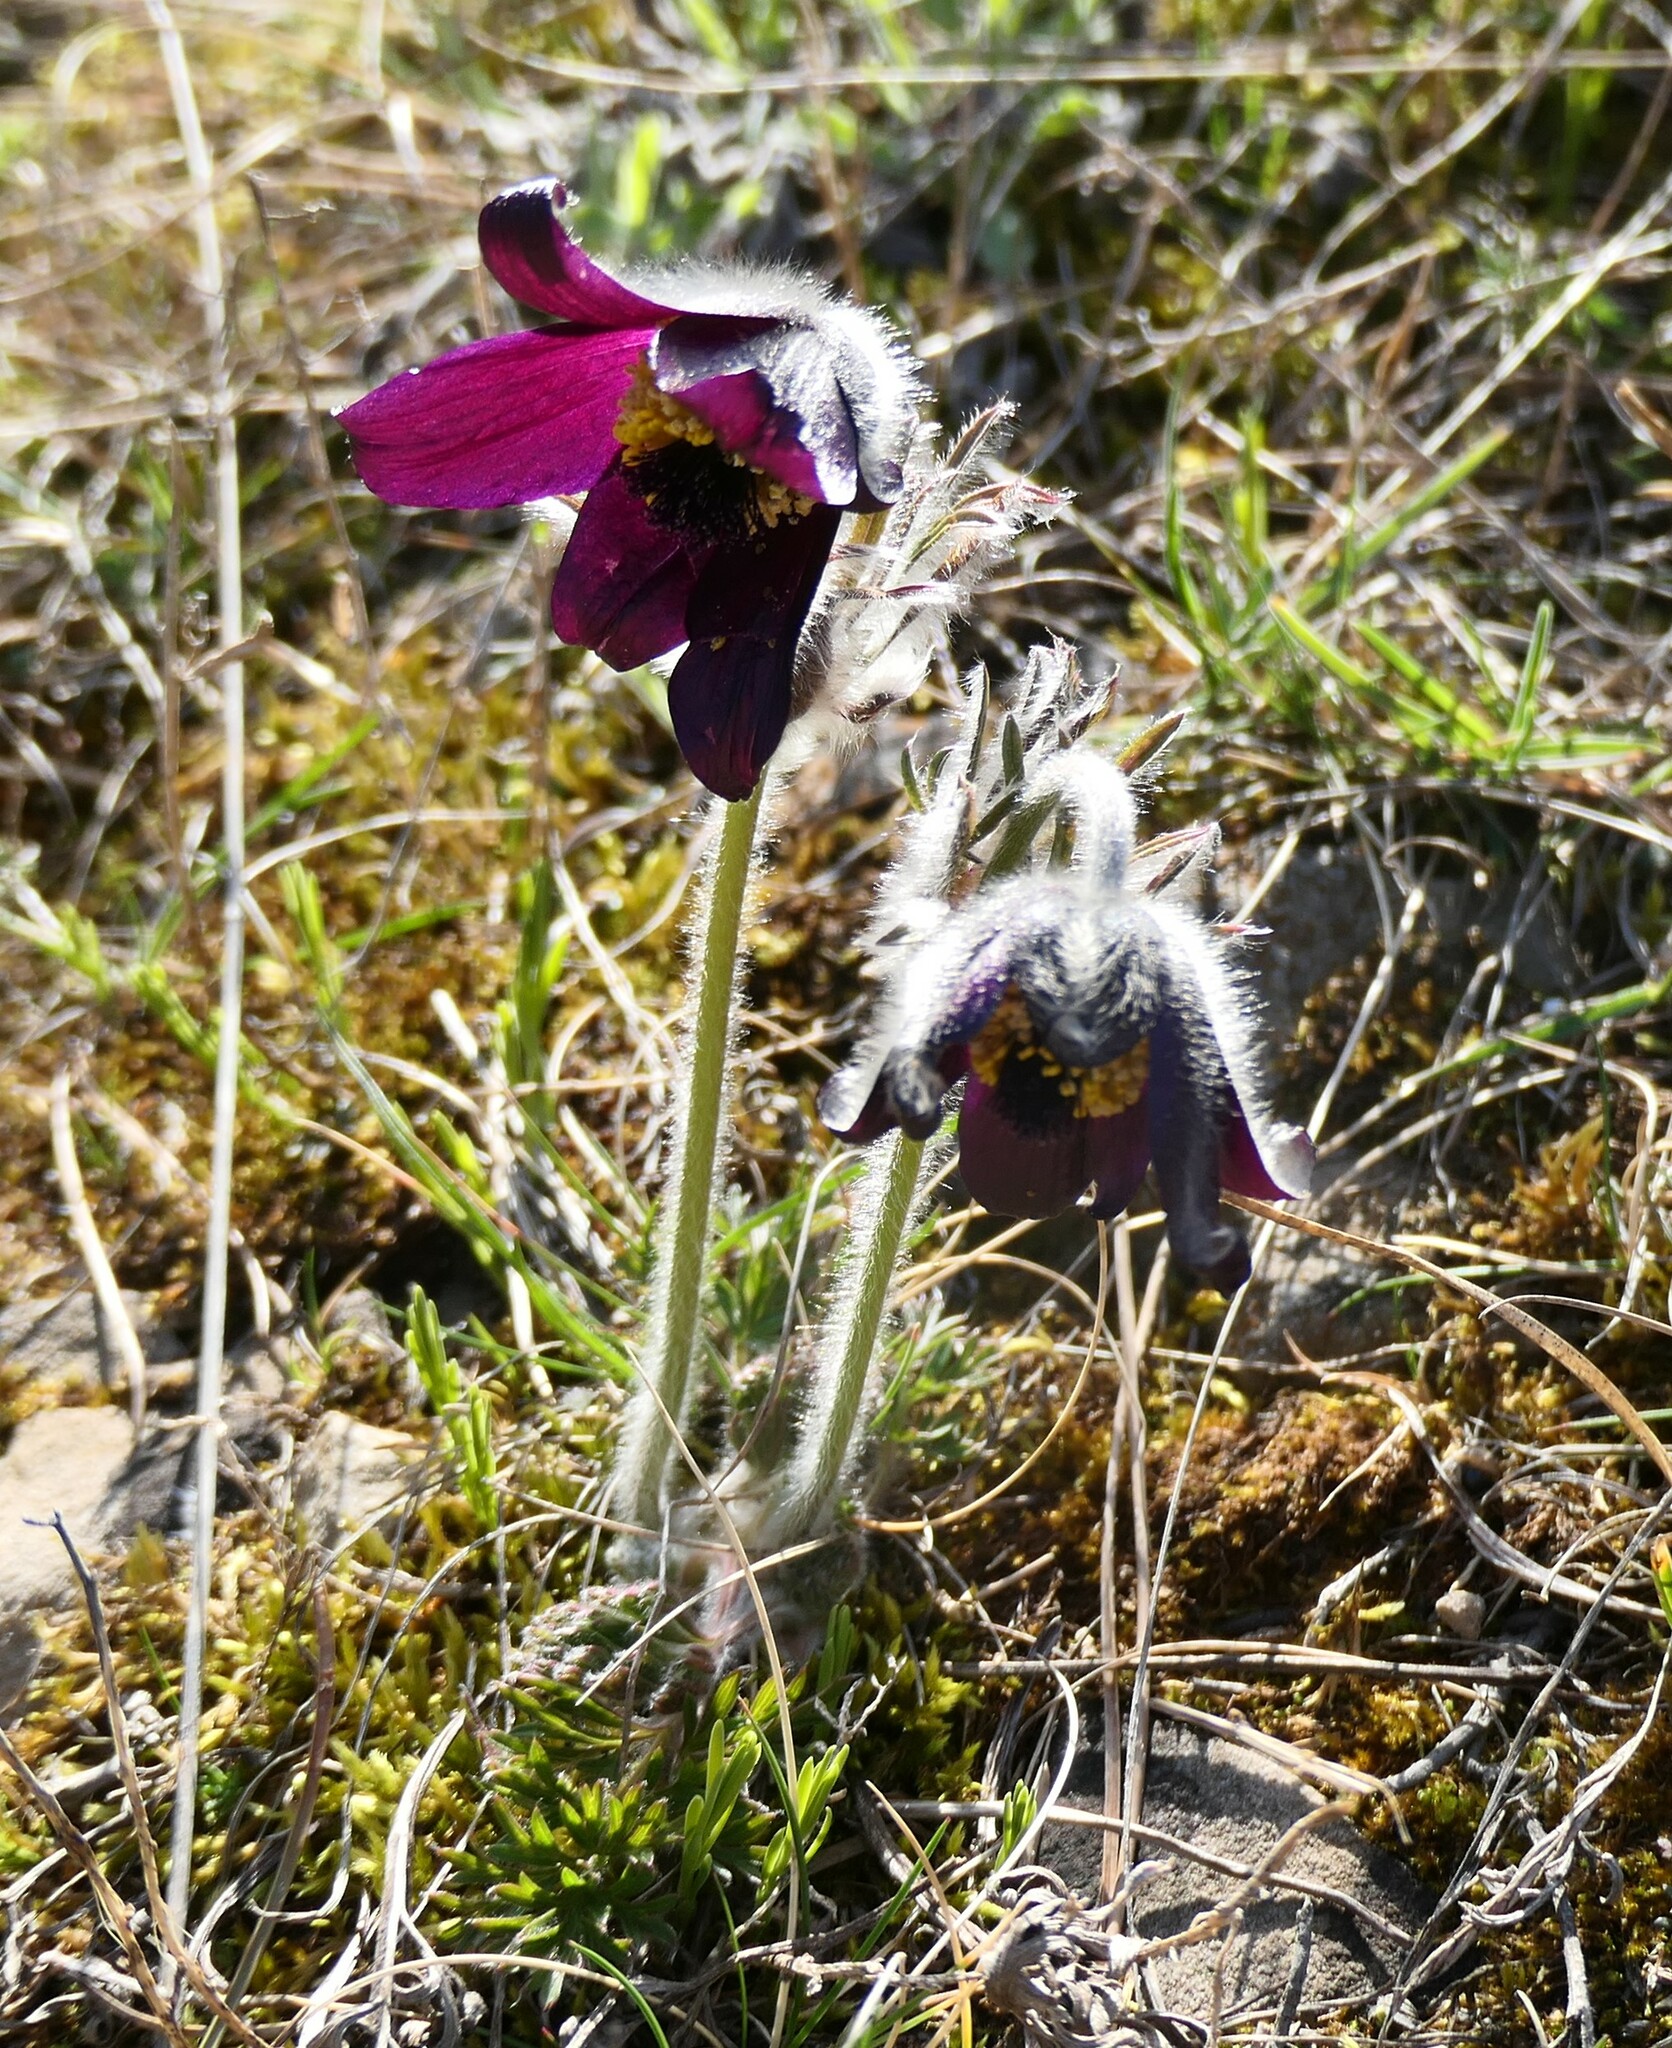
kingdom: Plantae
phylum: Tracheophyta
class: Magnoliopsida
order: Ranunculales
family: Ranunculaceae
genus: Pulsatilla
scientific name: Pulsatilla pratensis
